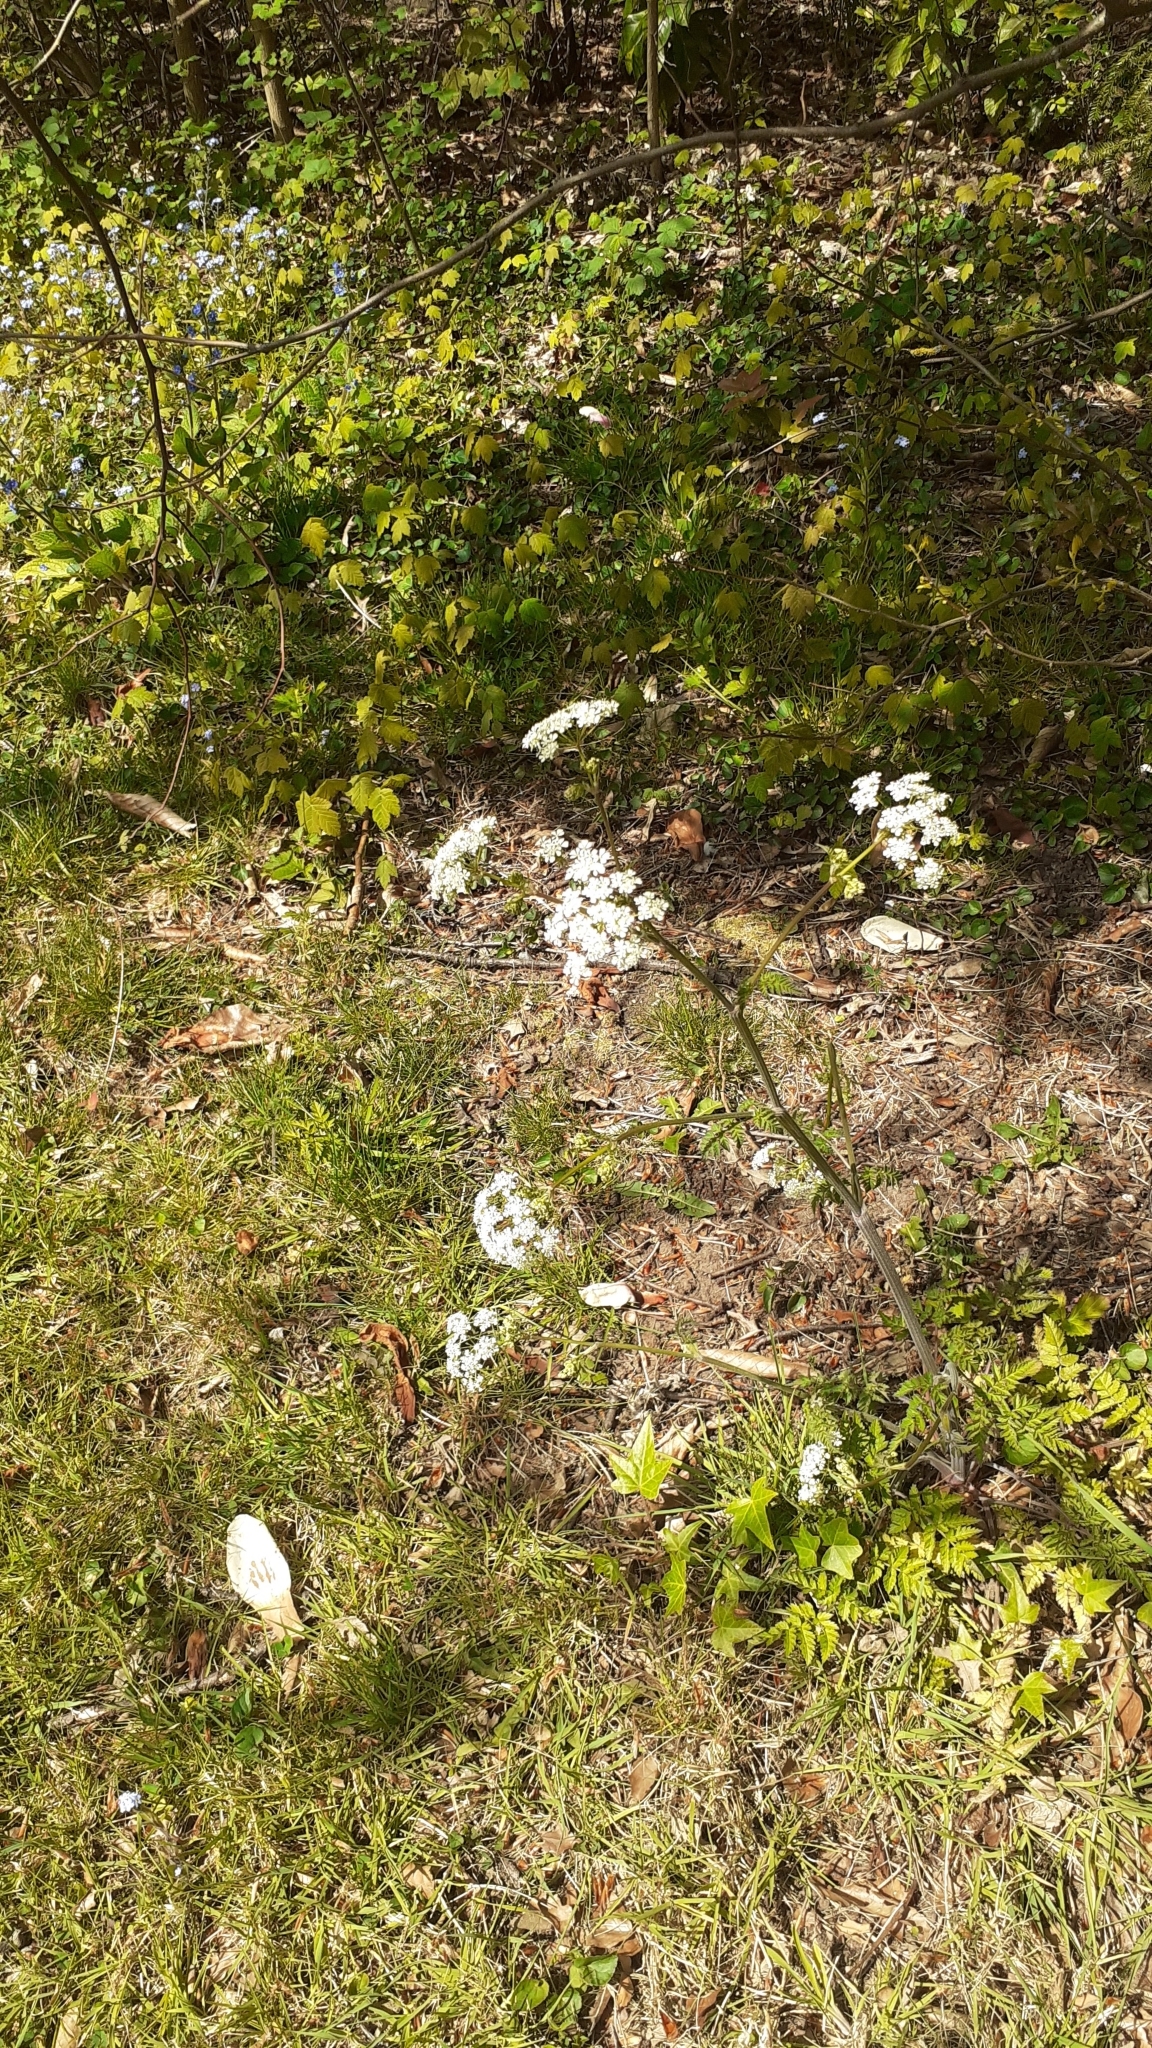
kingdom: Plantae
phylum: Tracheophyta
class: Magnoliopsida
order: Apiales
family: Apiaceae
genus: Anthriscus
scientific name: Anthriscus sylvestris
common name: Cow parsley
